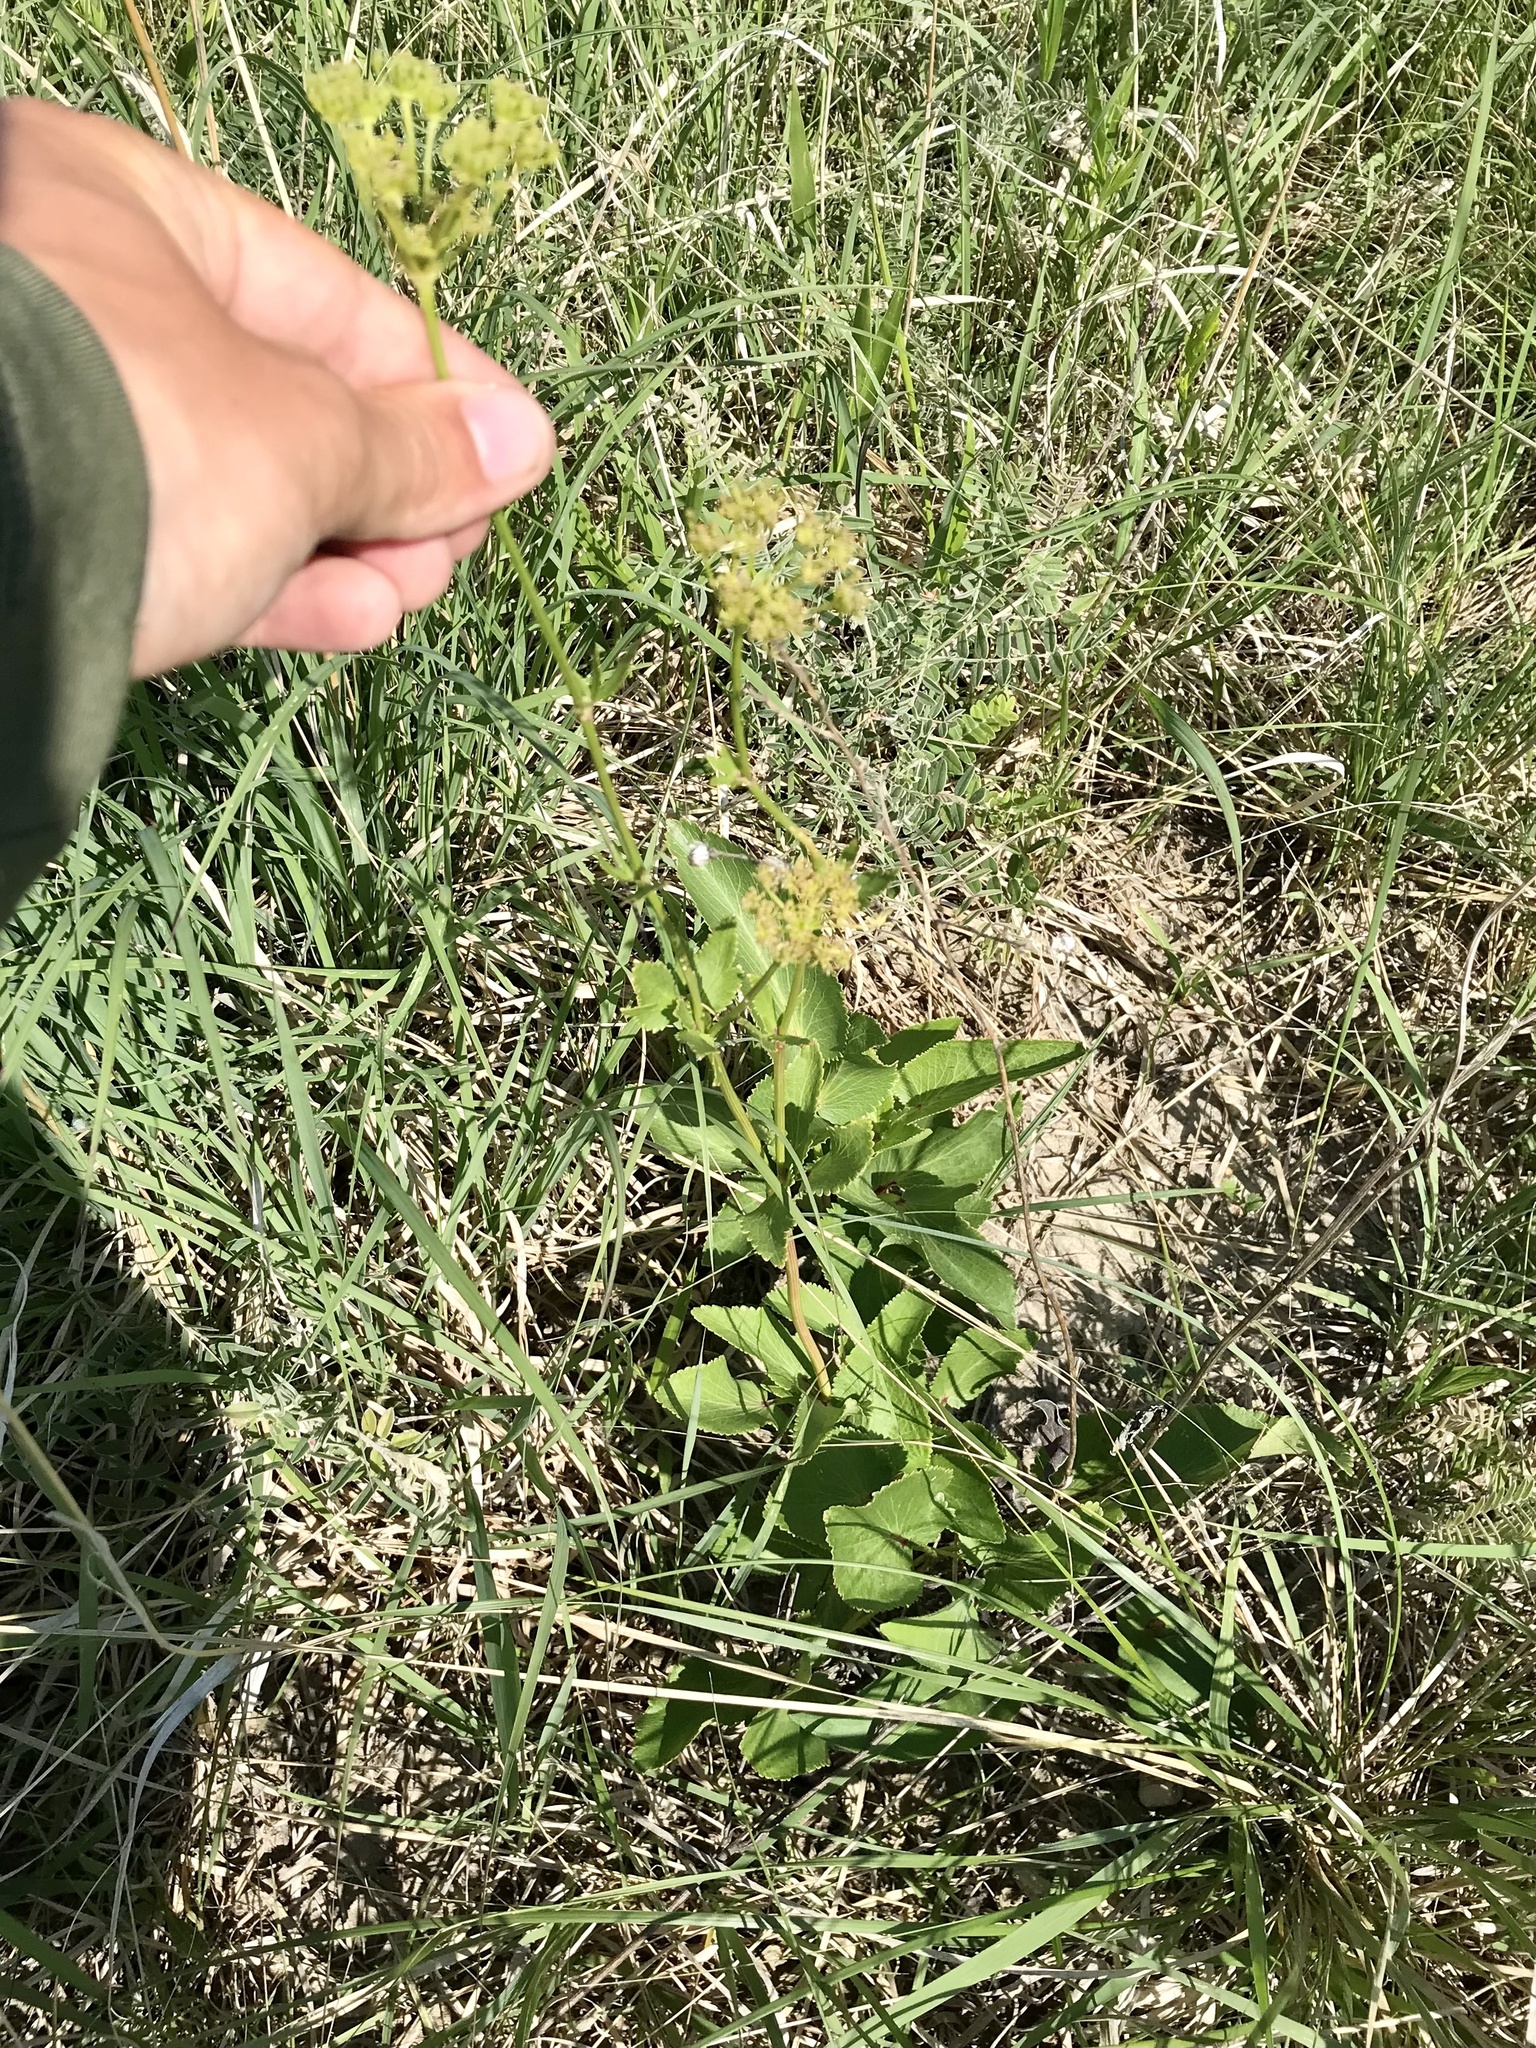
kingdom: Plantae
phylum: Tracheophyta
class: Magnoliopsida
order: Apiales
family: Apiaceae
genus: Zizia
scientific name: Zizia aptera
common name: Heart-leaved alexanders
